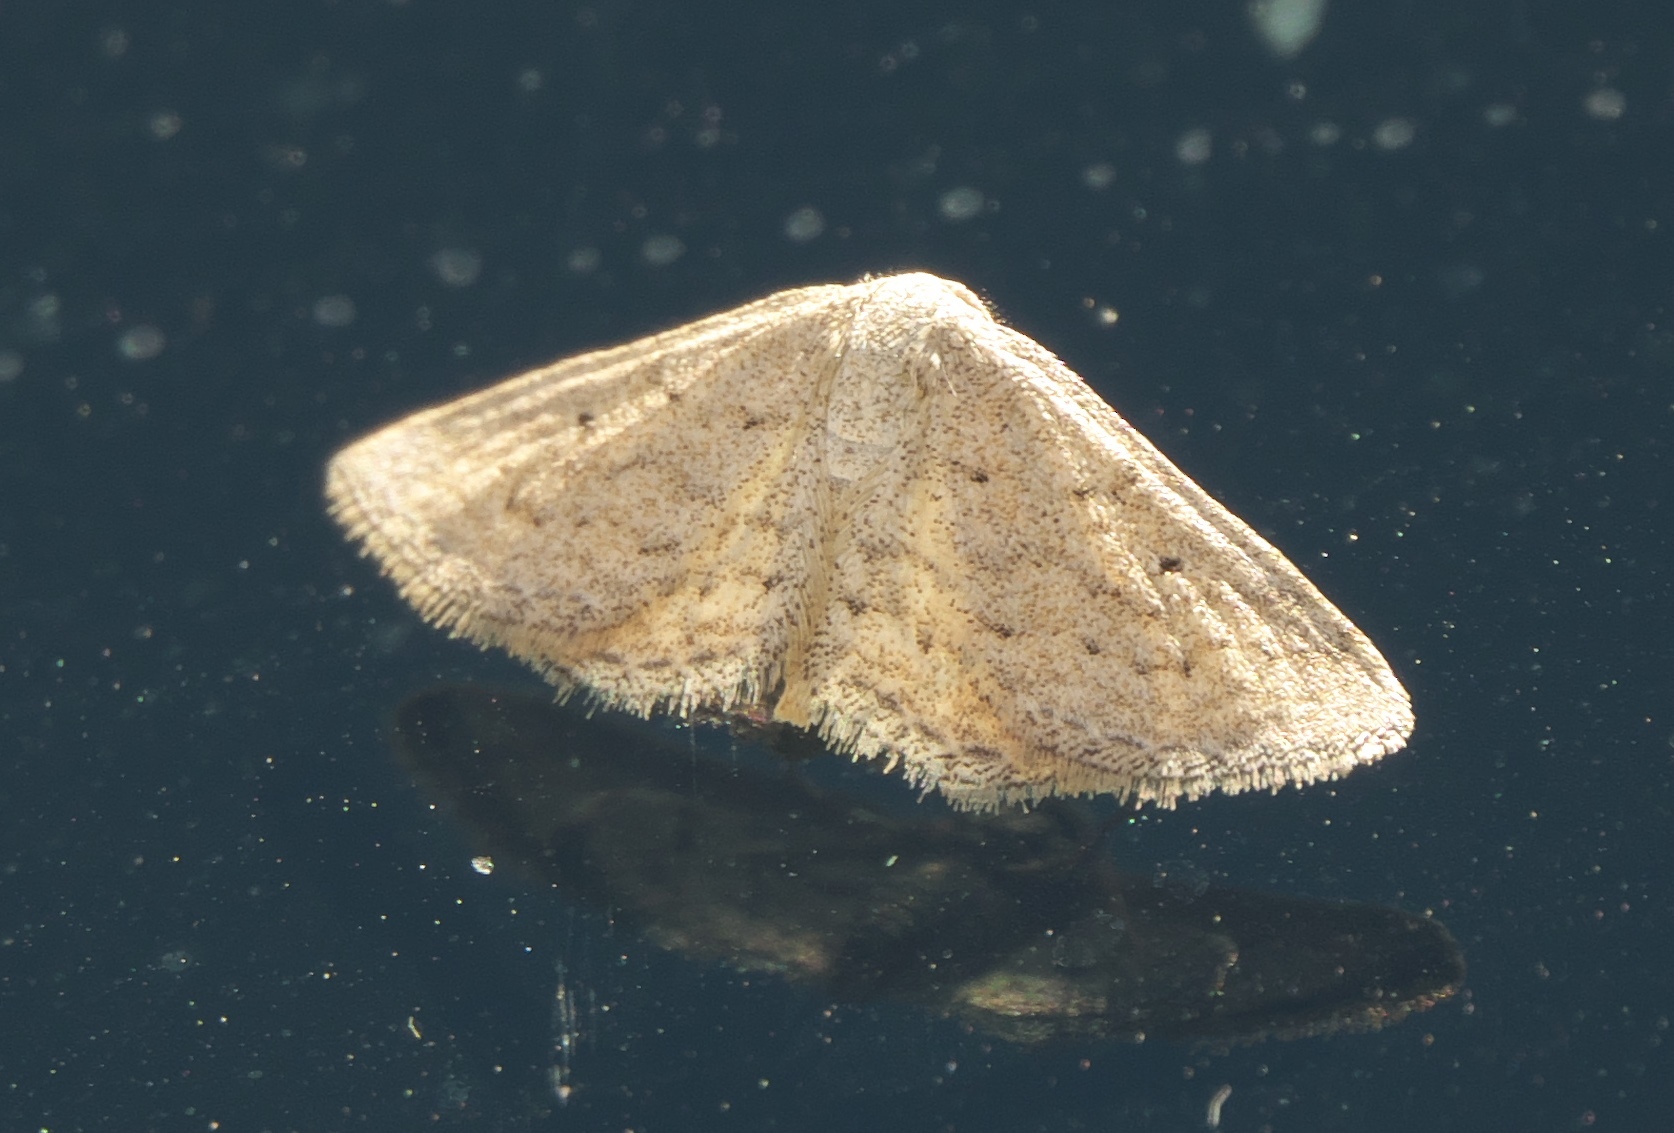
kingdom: Animalia
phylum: Arthropoda
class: Insecta
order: Lepidoptera
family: Geometridae
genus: Lobocleta
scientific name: Lobocleta ossularia
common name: Drab brown wave
